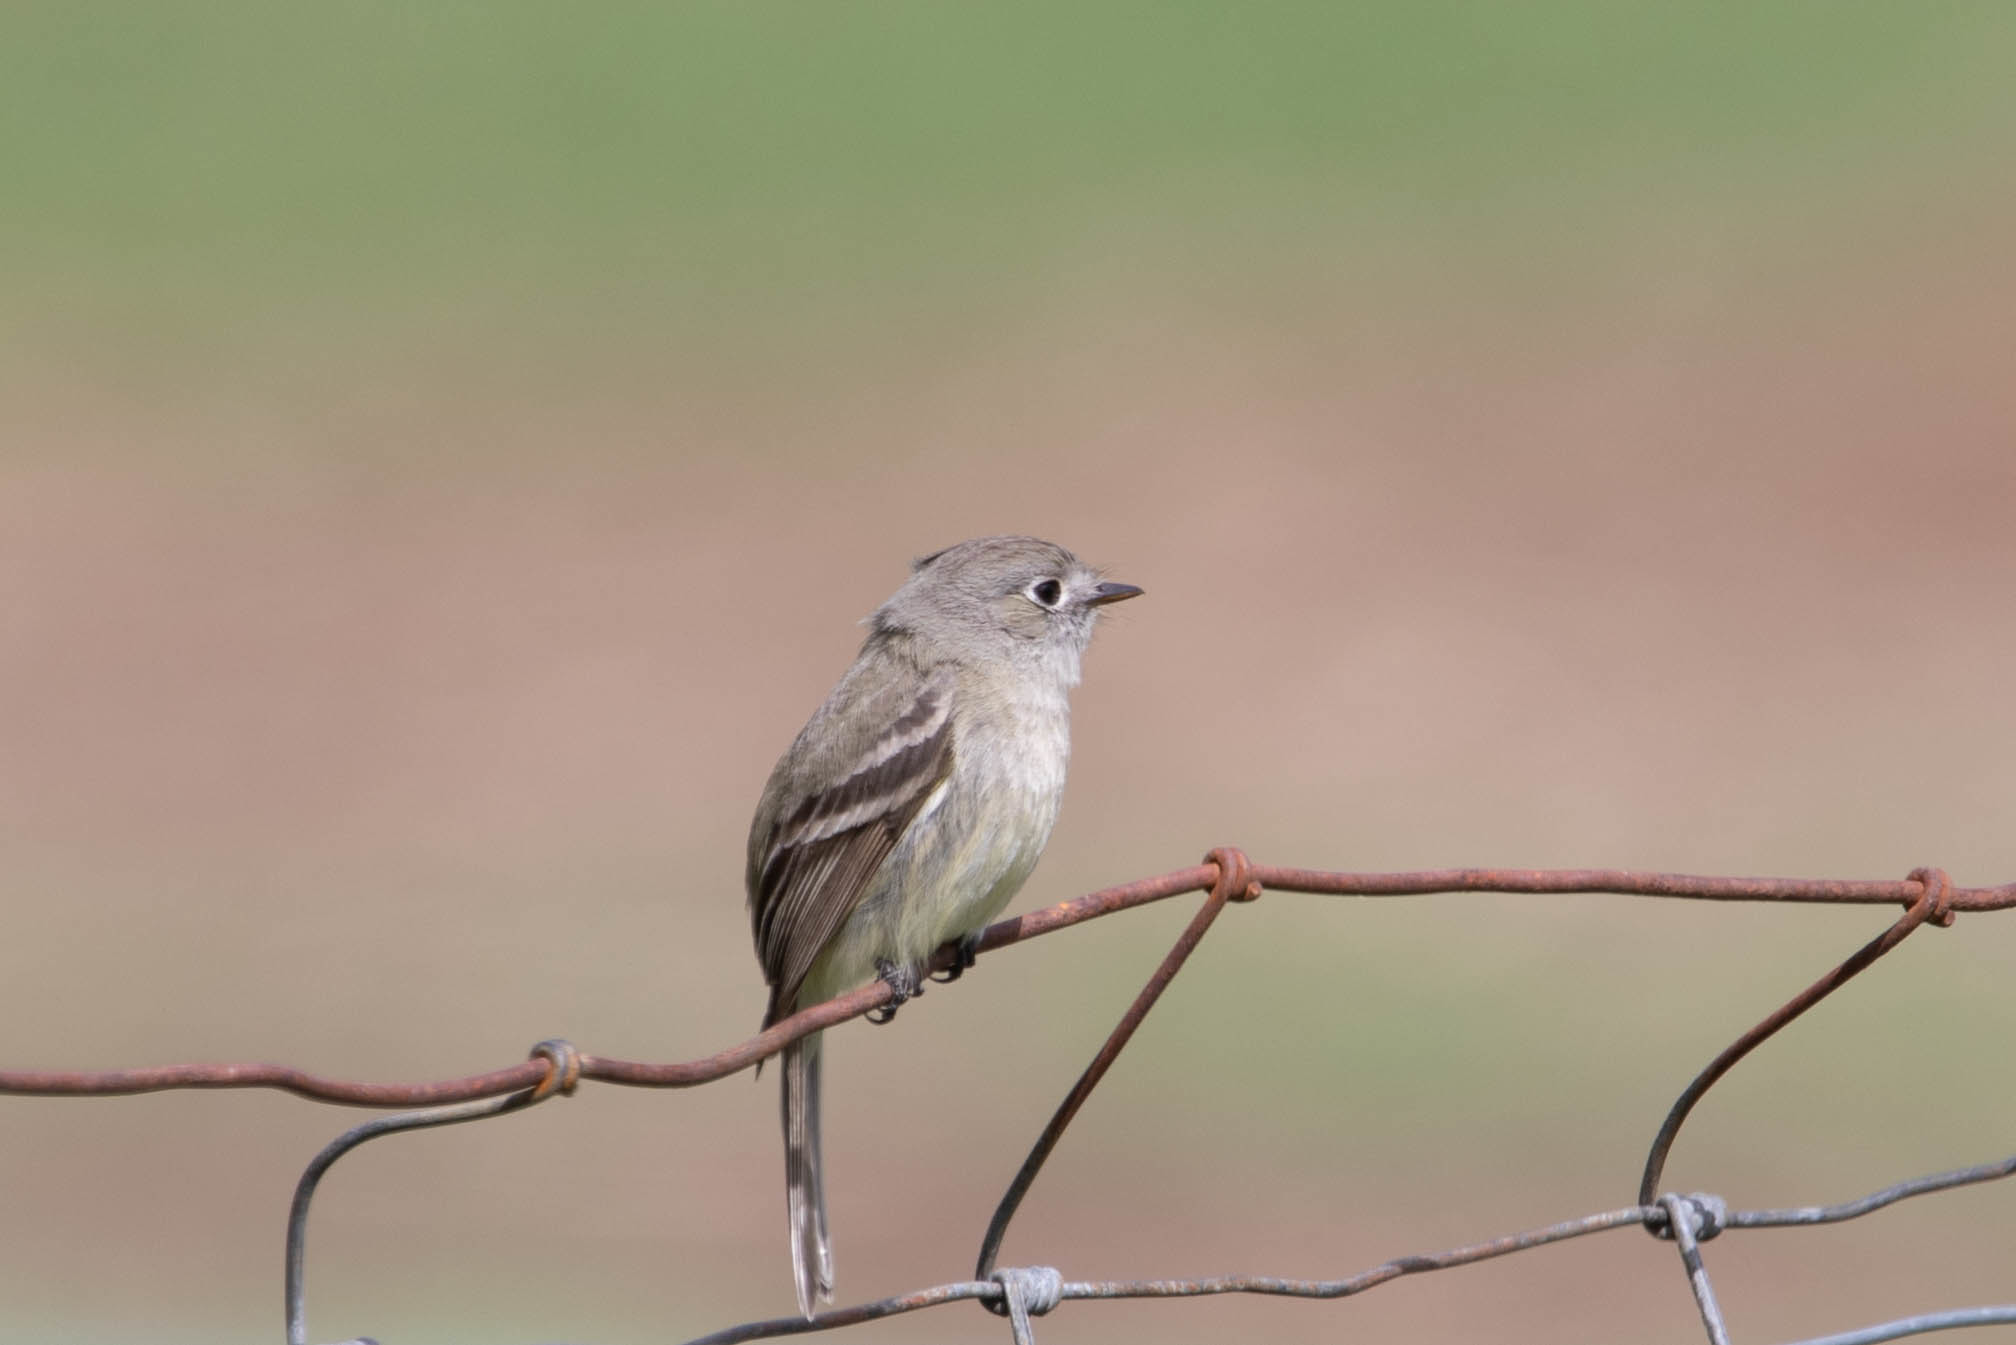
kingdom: Animalia
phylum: Chordata
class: Aves
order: Passeriformes
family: Tyrannidae
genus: Empidonax
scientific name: Empidonax oberholseri
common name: Dusky flycatcher
